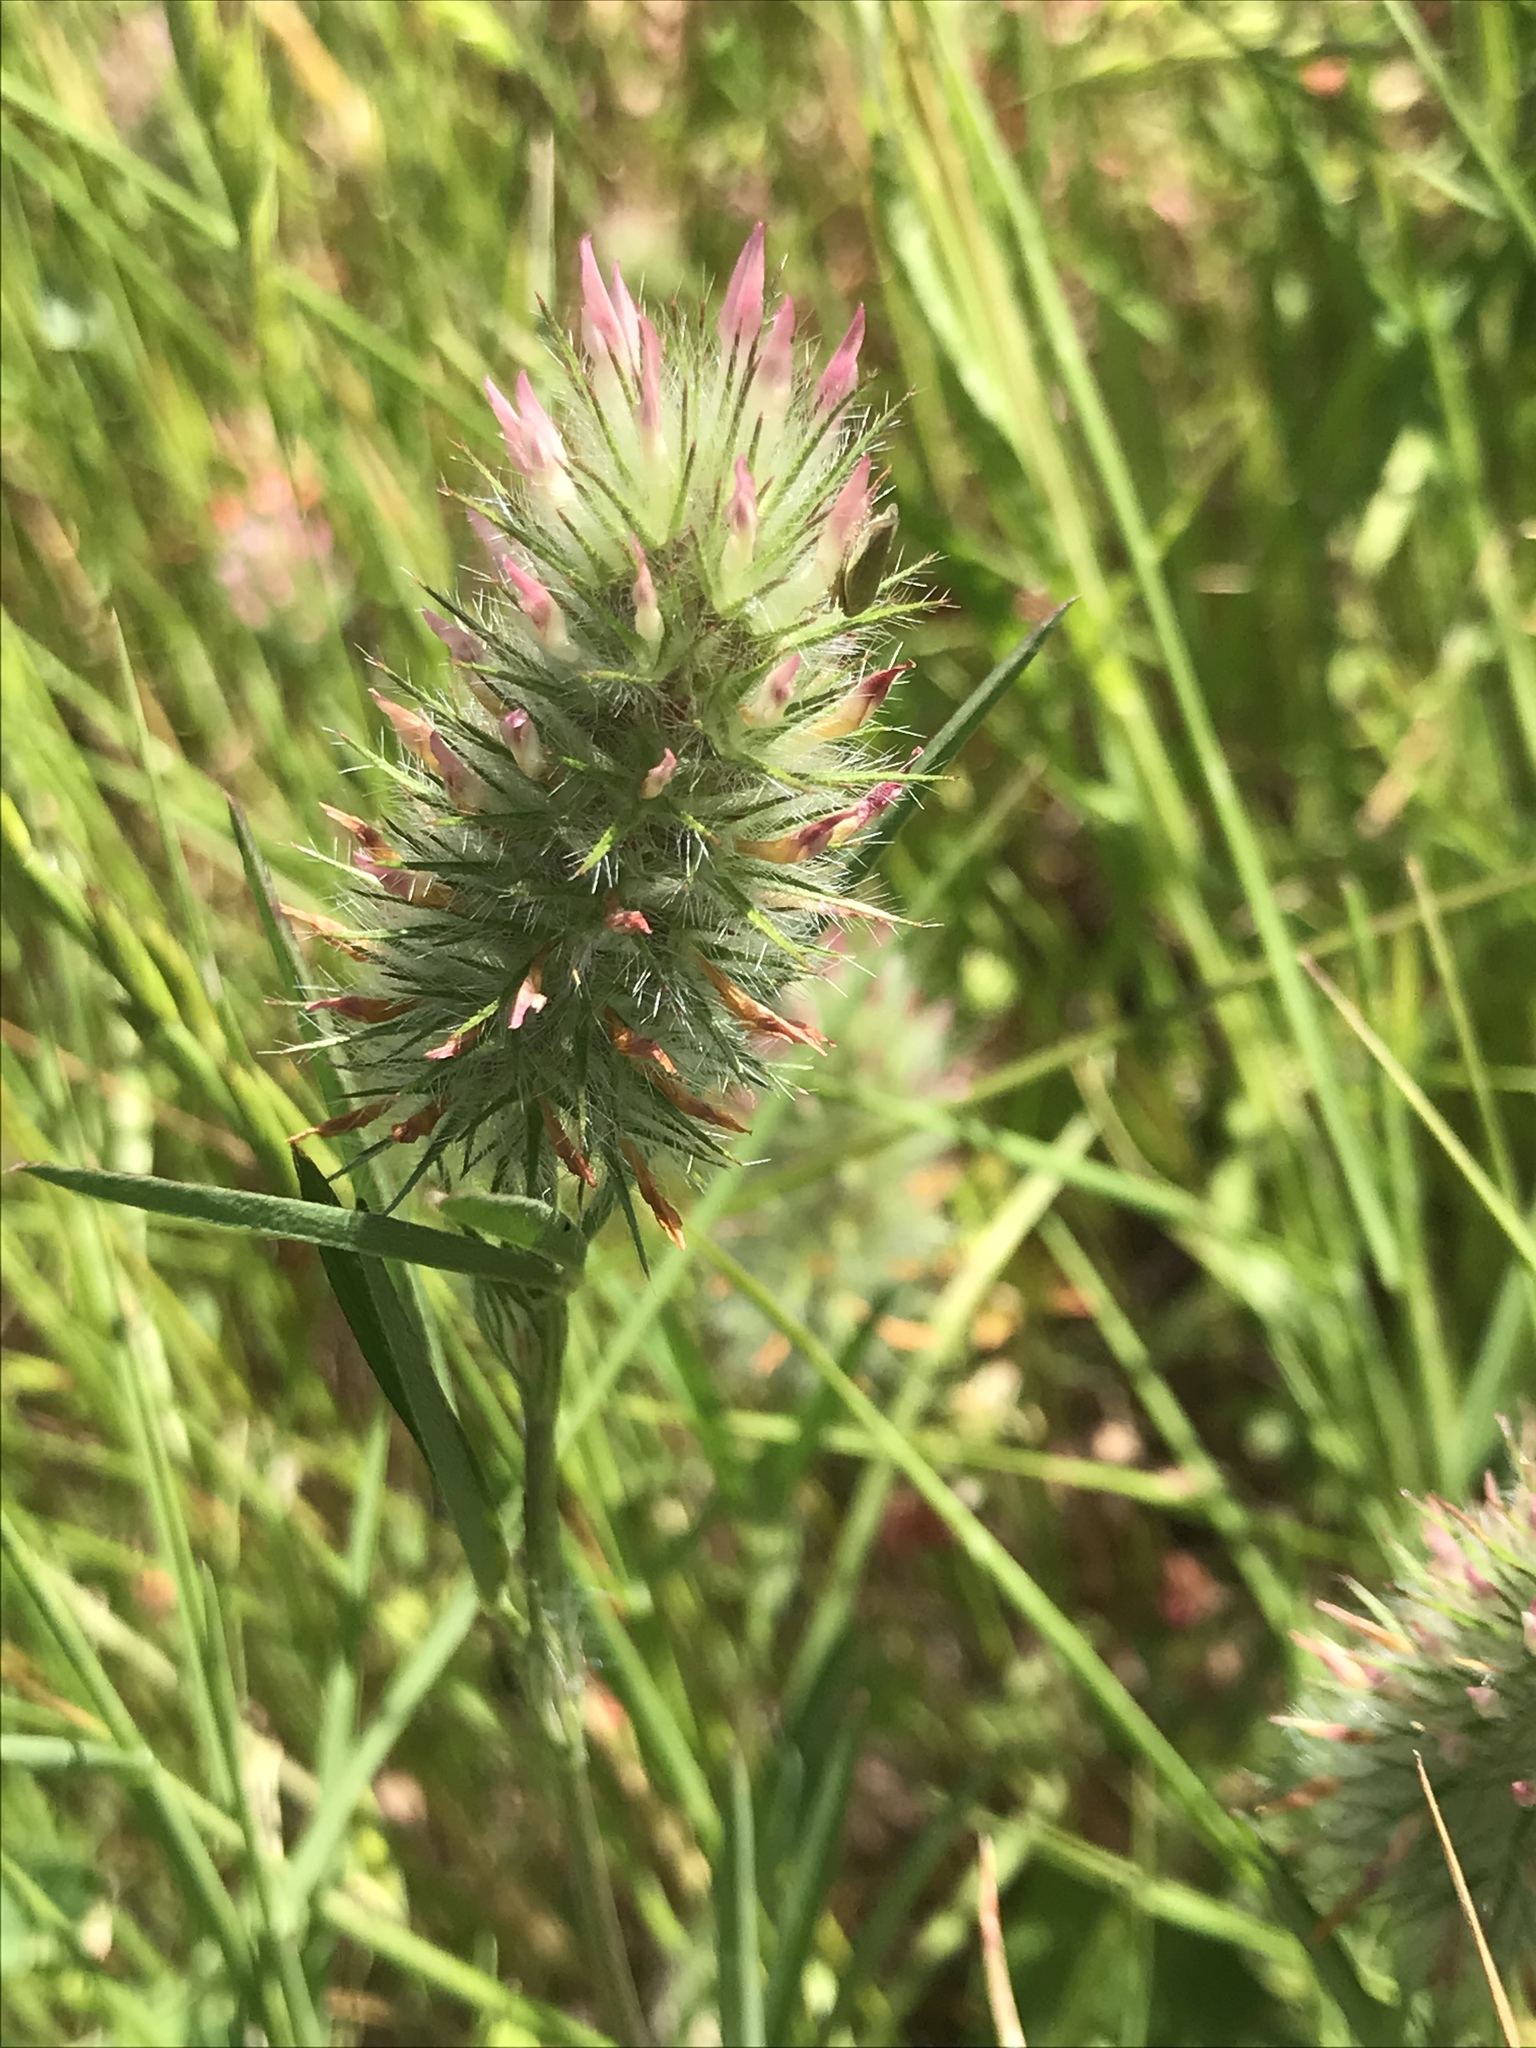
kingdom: Plantae
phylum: Tracheophyta
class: Magnoliopsida
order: Fabales
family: Fabaceae
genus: Trifolium
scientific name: Trifolium angustifolium
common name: Narrow clover
